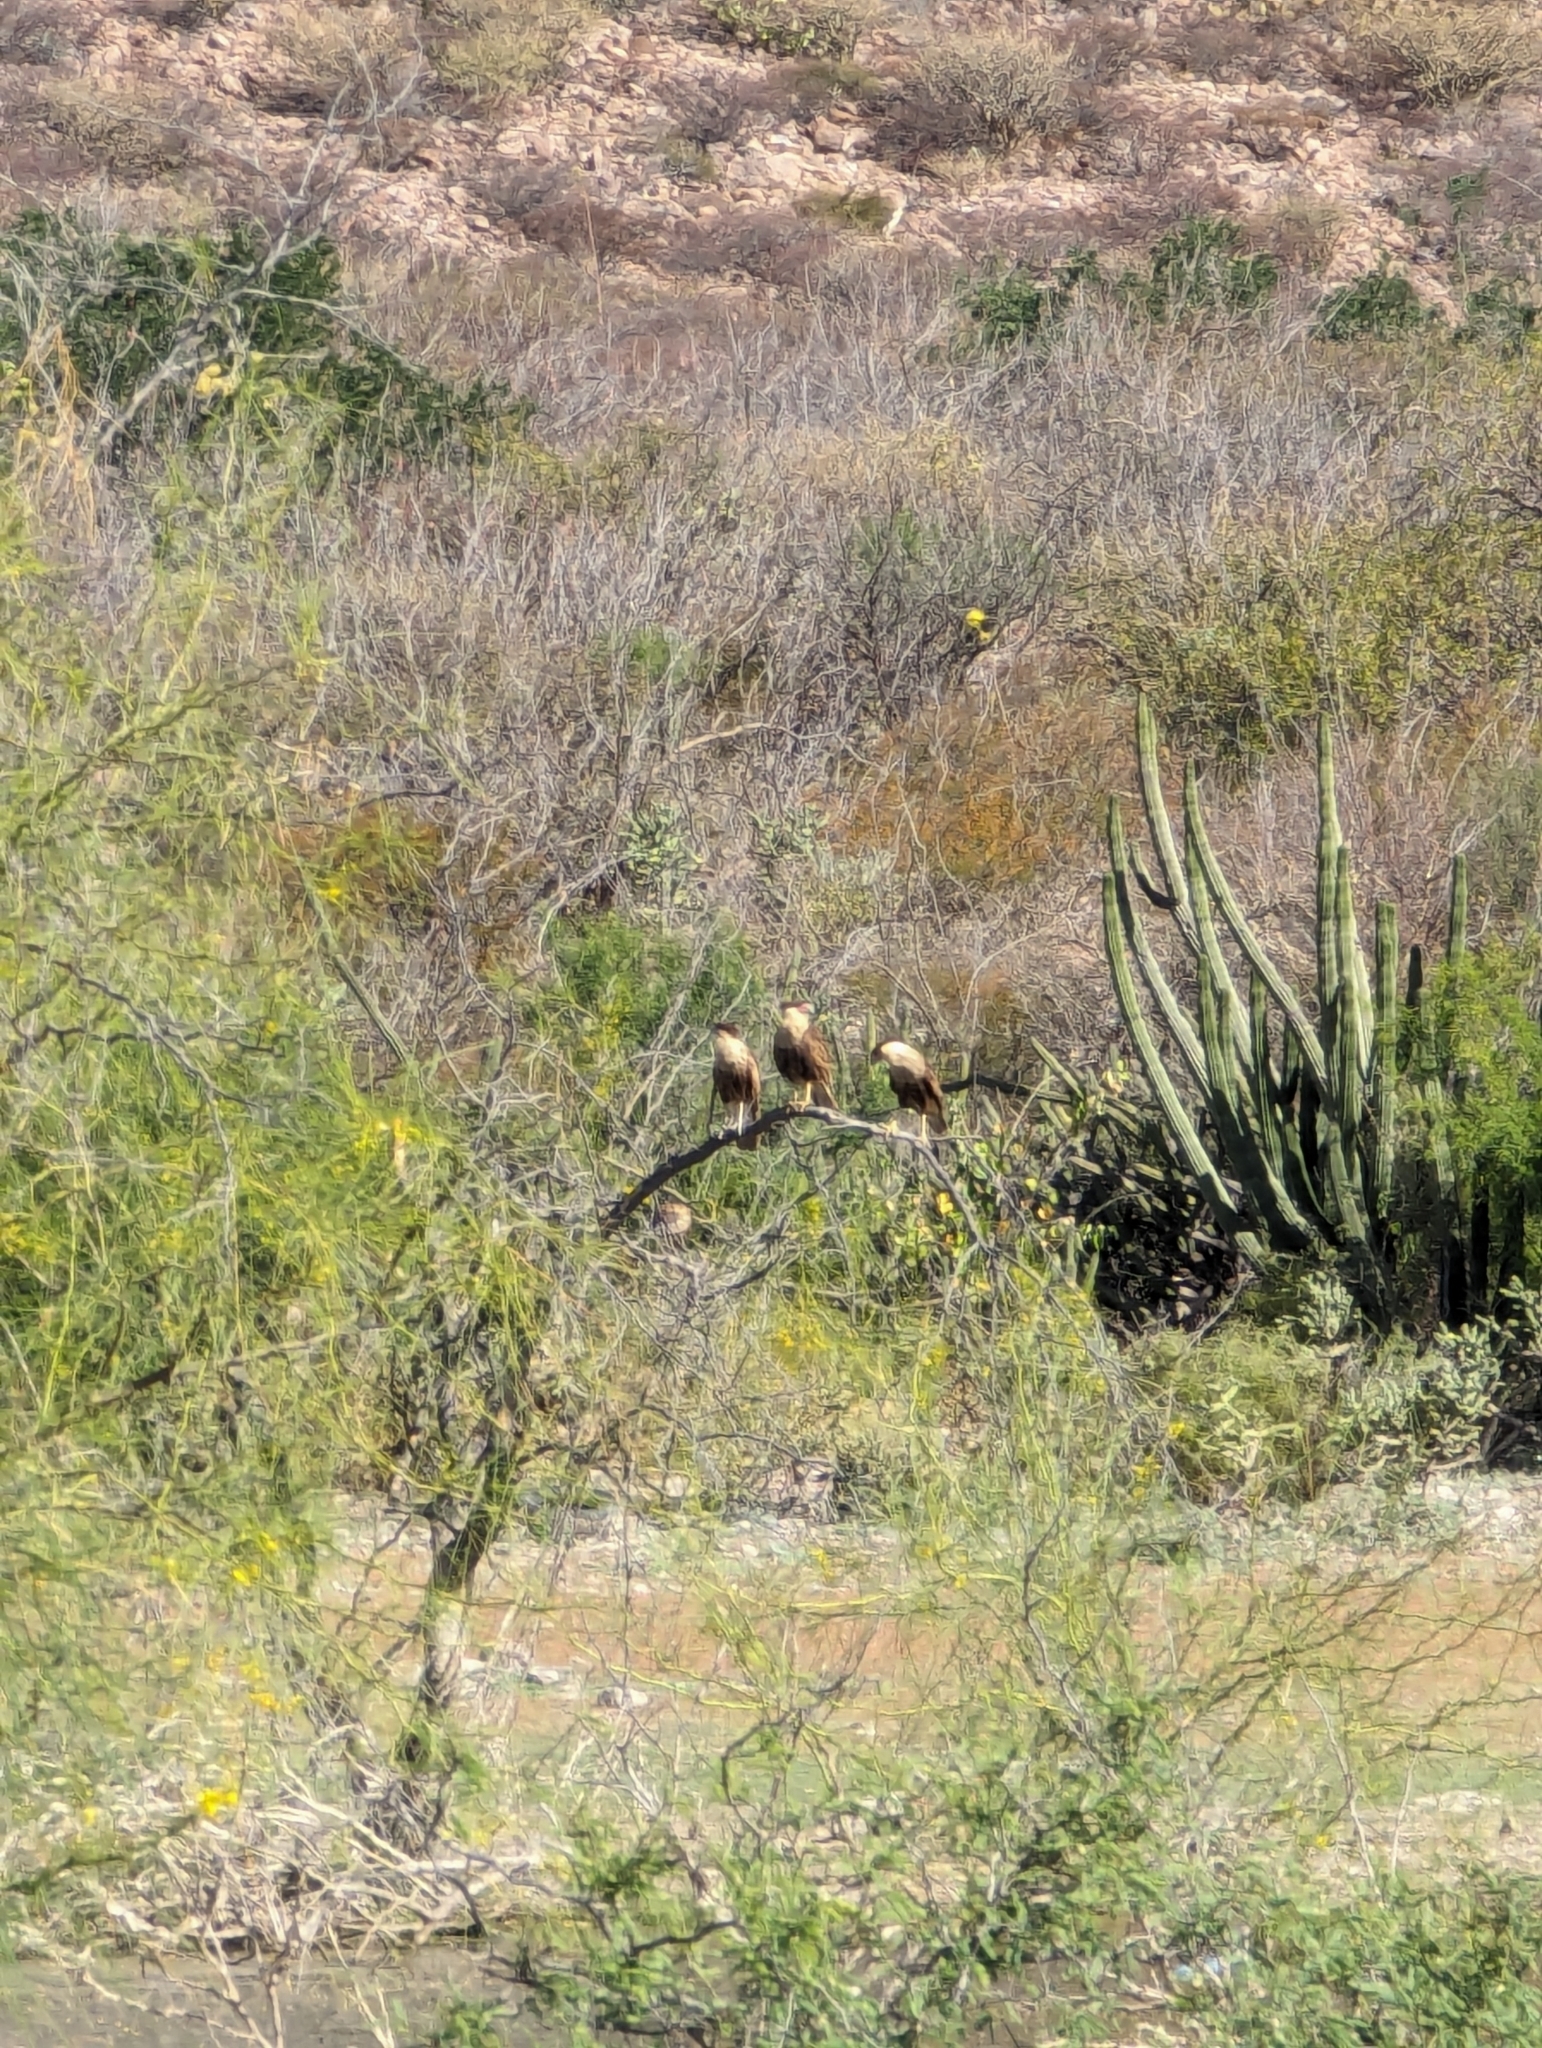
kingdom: Animalia
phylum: Chordata
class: Aves
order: Falconiformes
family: Falconidae
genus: Caracara
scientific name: Caracara plancus
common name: Southern caracara
